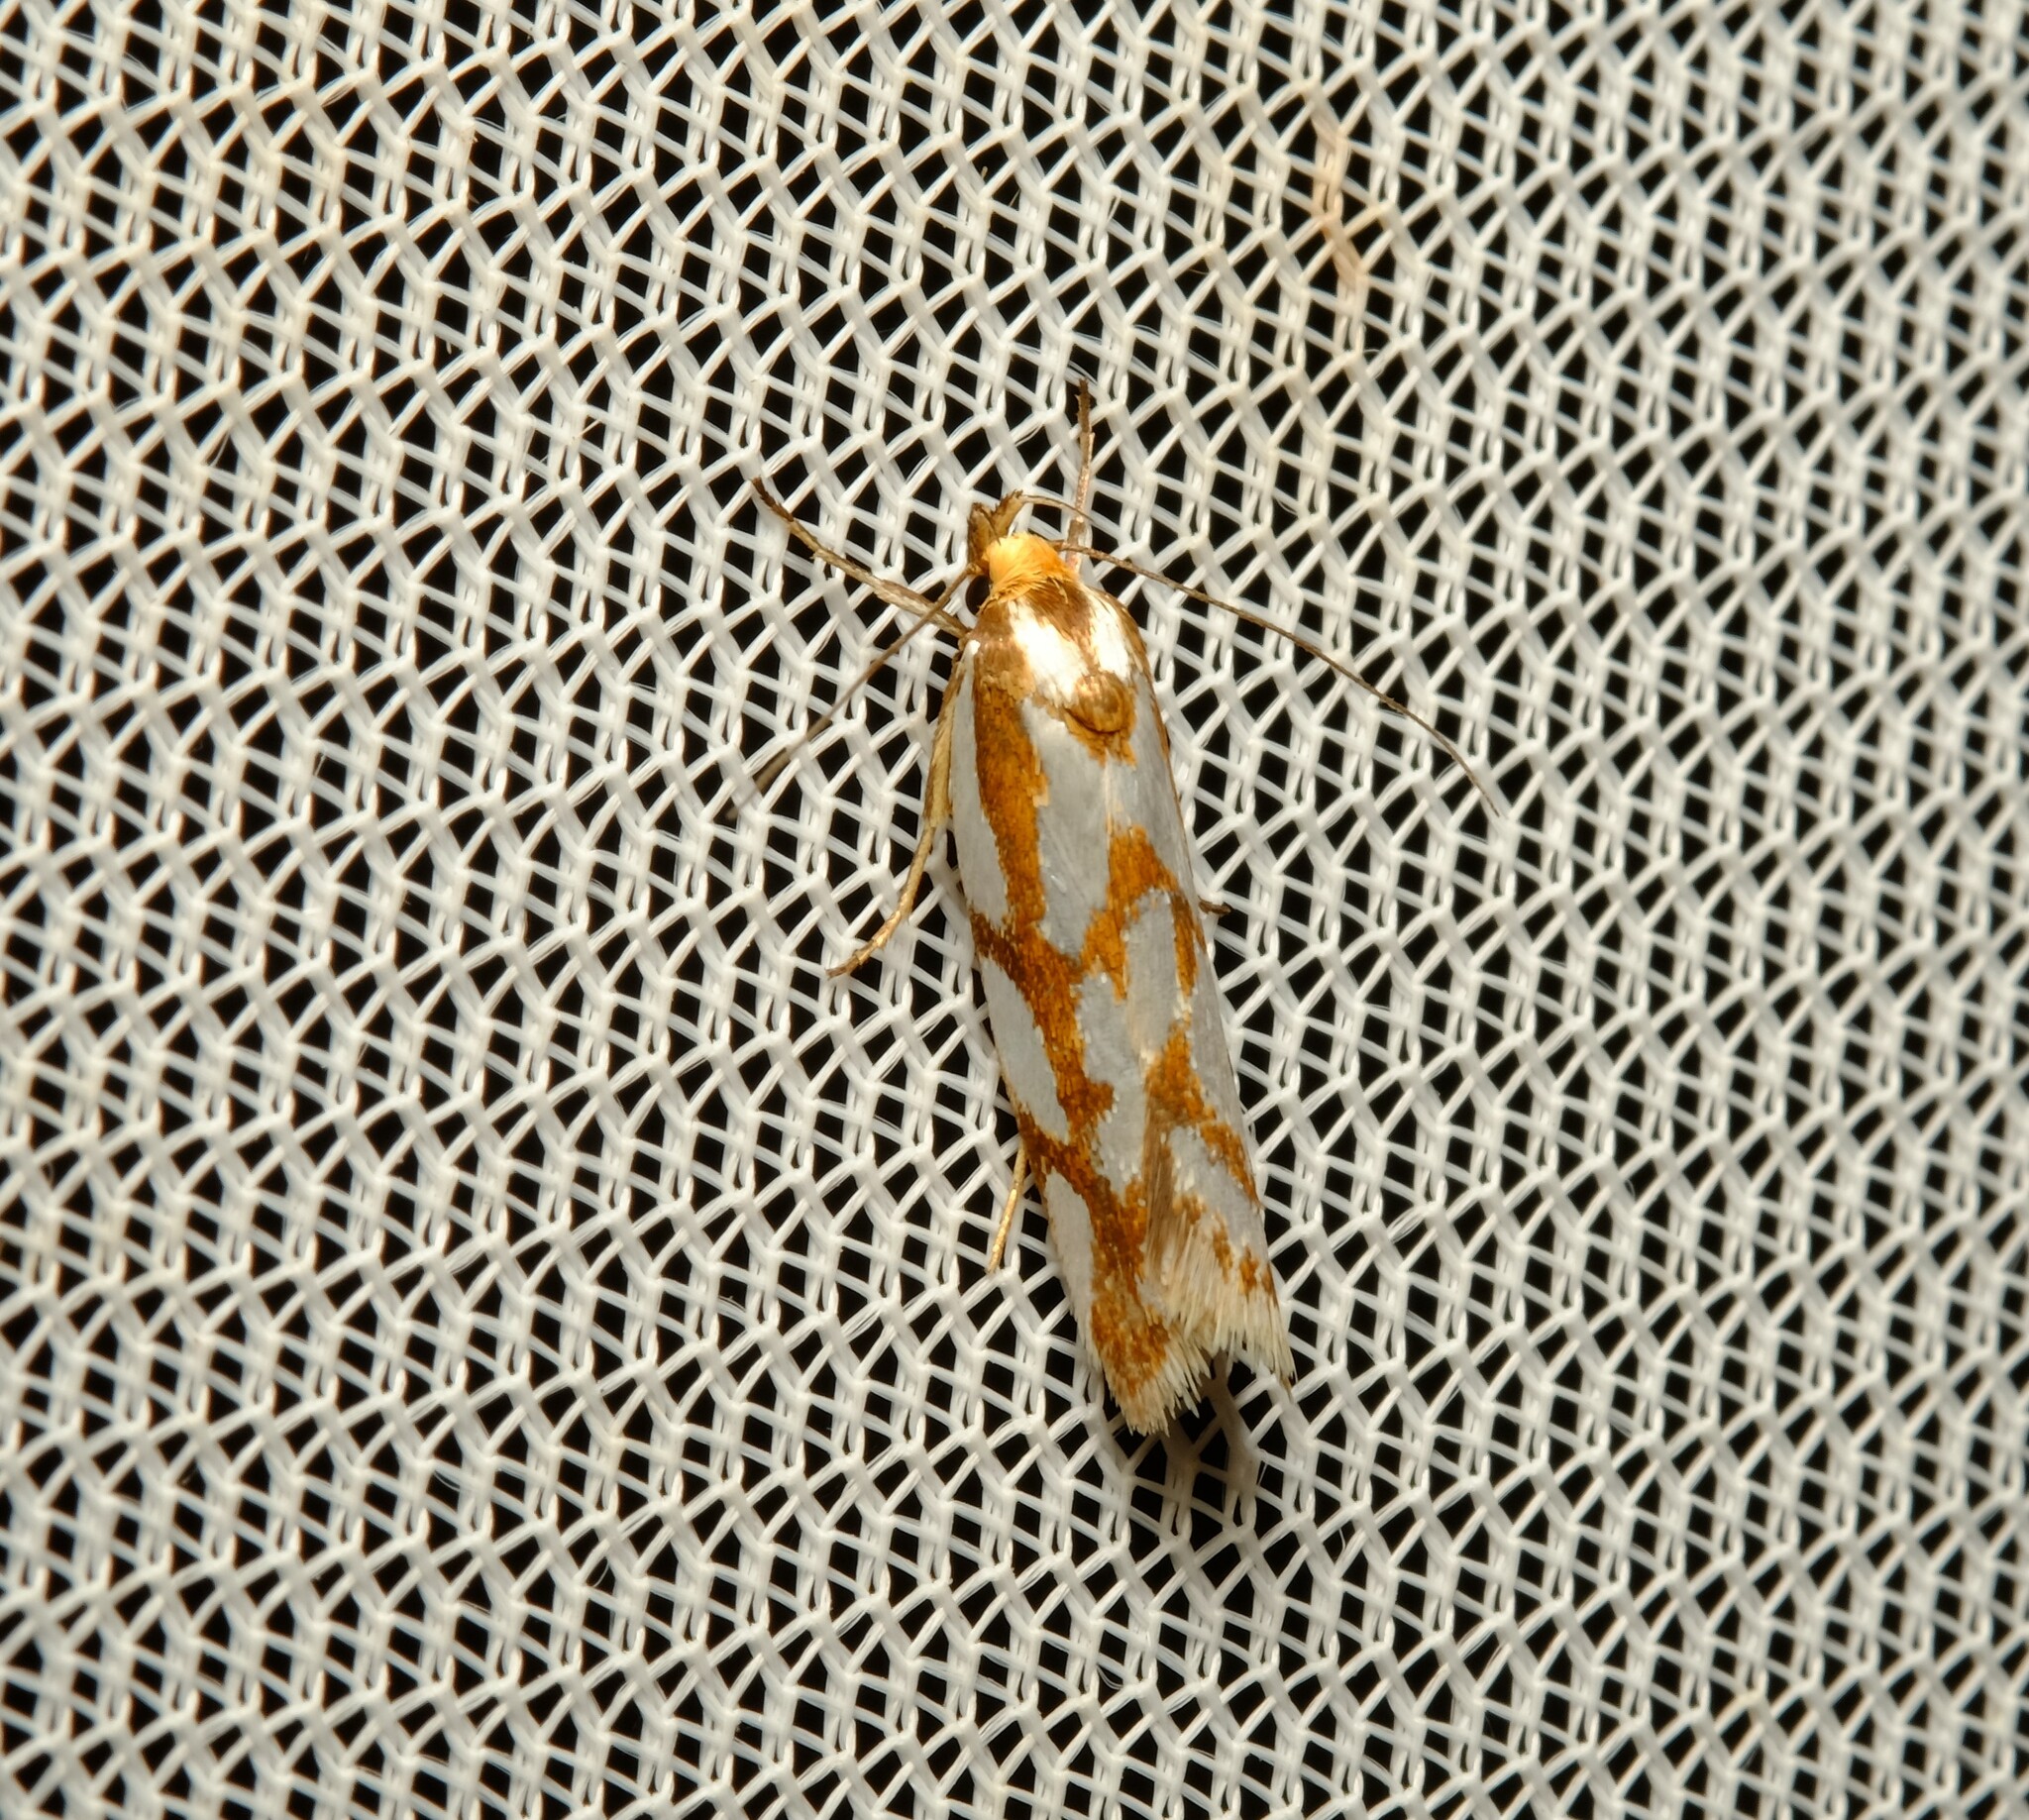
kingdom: Animalia
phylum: Arthropoda
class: Insecta
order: Lepidoptera
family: Oecophoridae
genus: Myrascia
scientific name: Myrascia bracteatella
